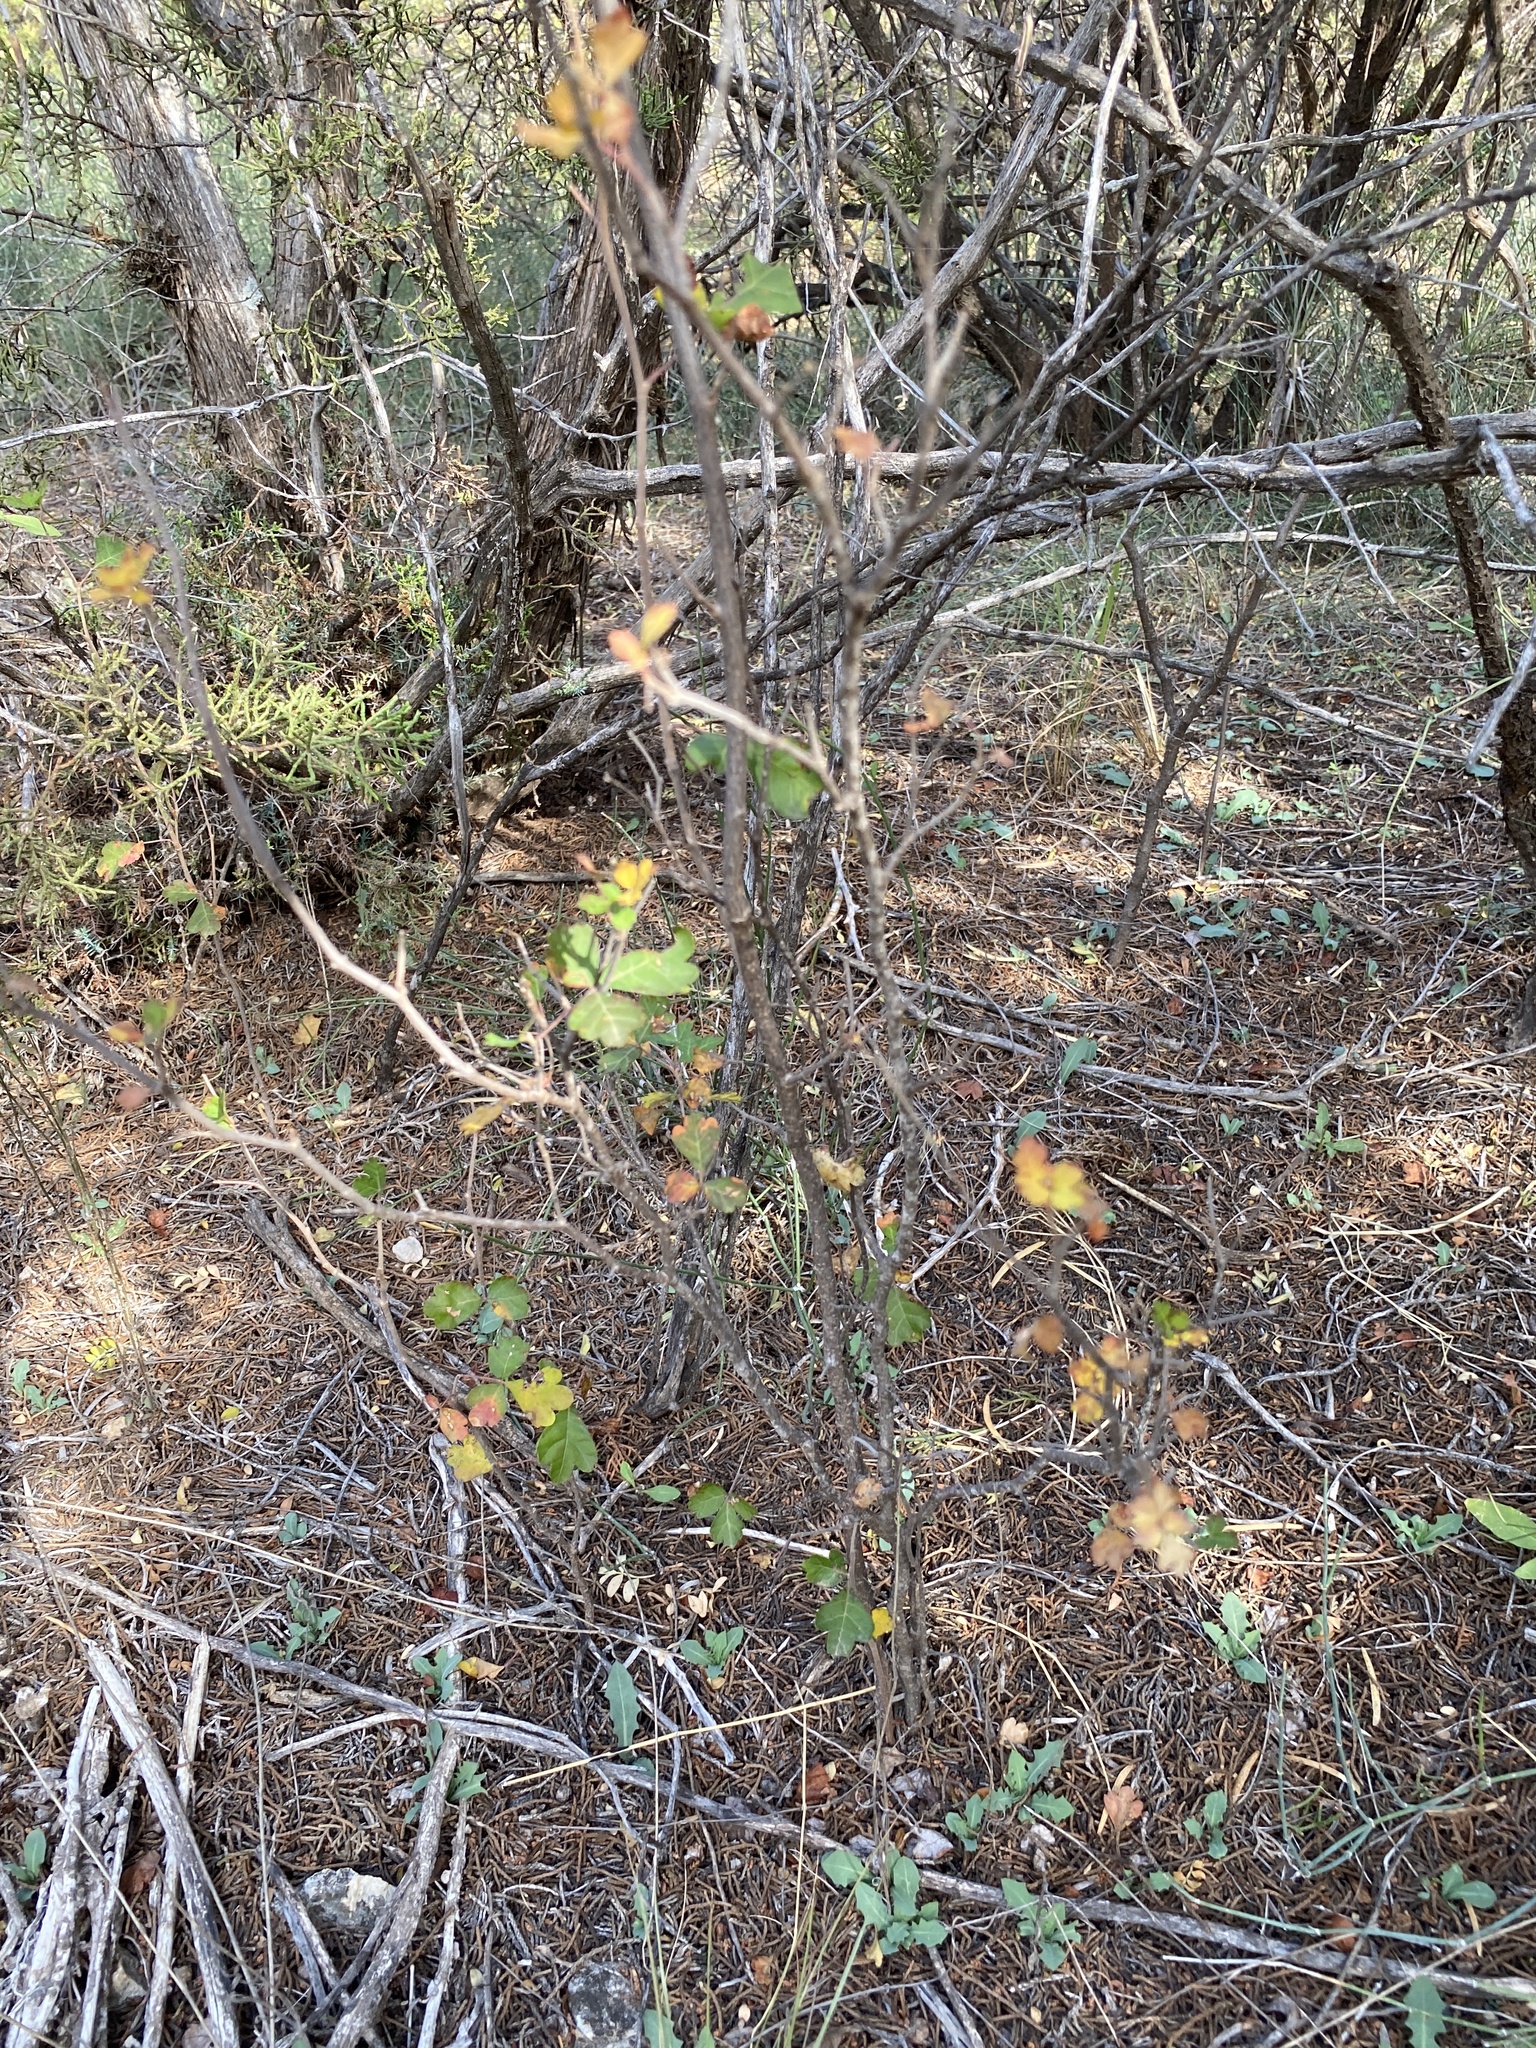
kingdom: Plantae
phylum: Tracheophyta
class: Magnoliopsida
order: Sapindales
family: Anacardiaceae
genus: Rhus
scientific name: Rhus aromatica
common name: Aromatic sumac
